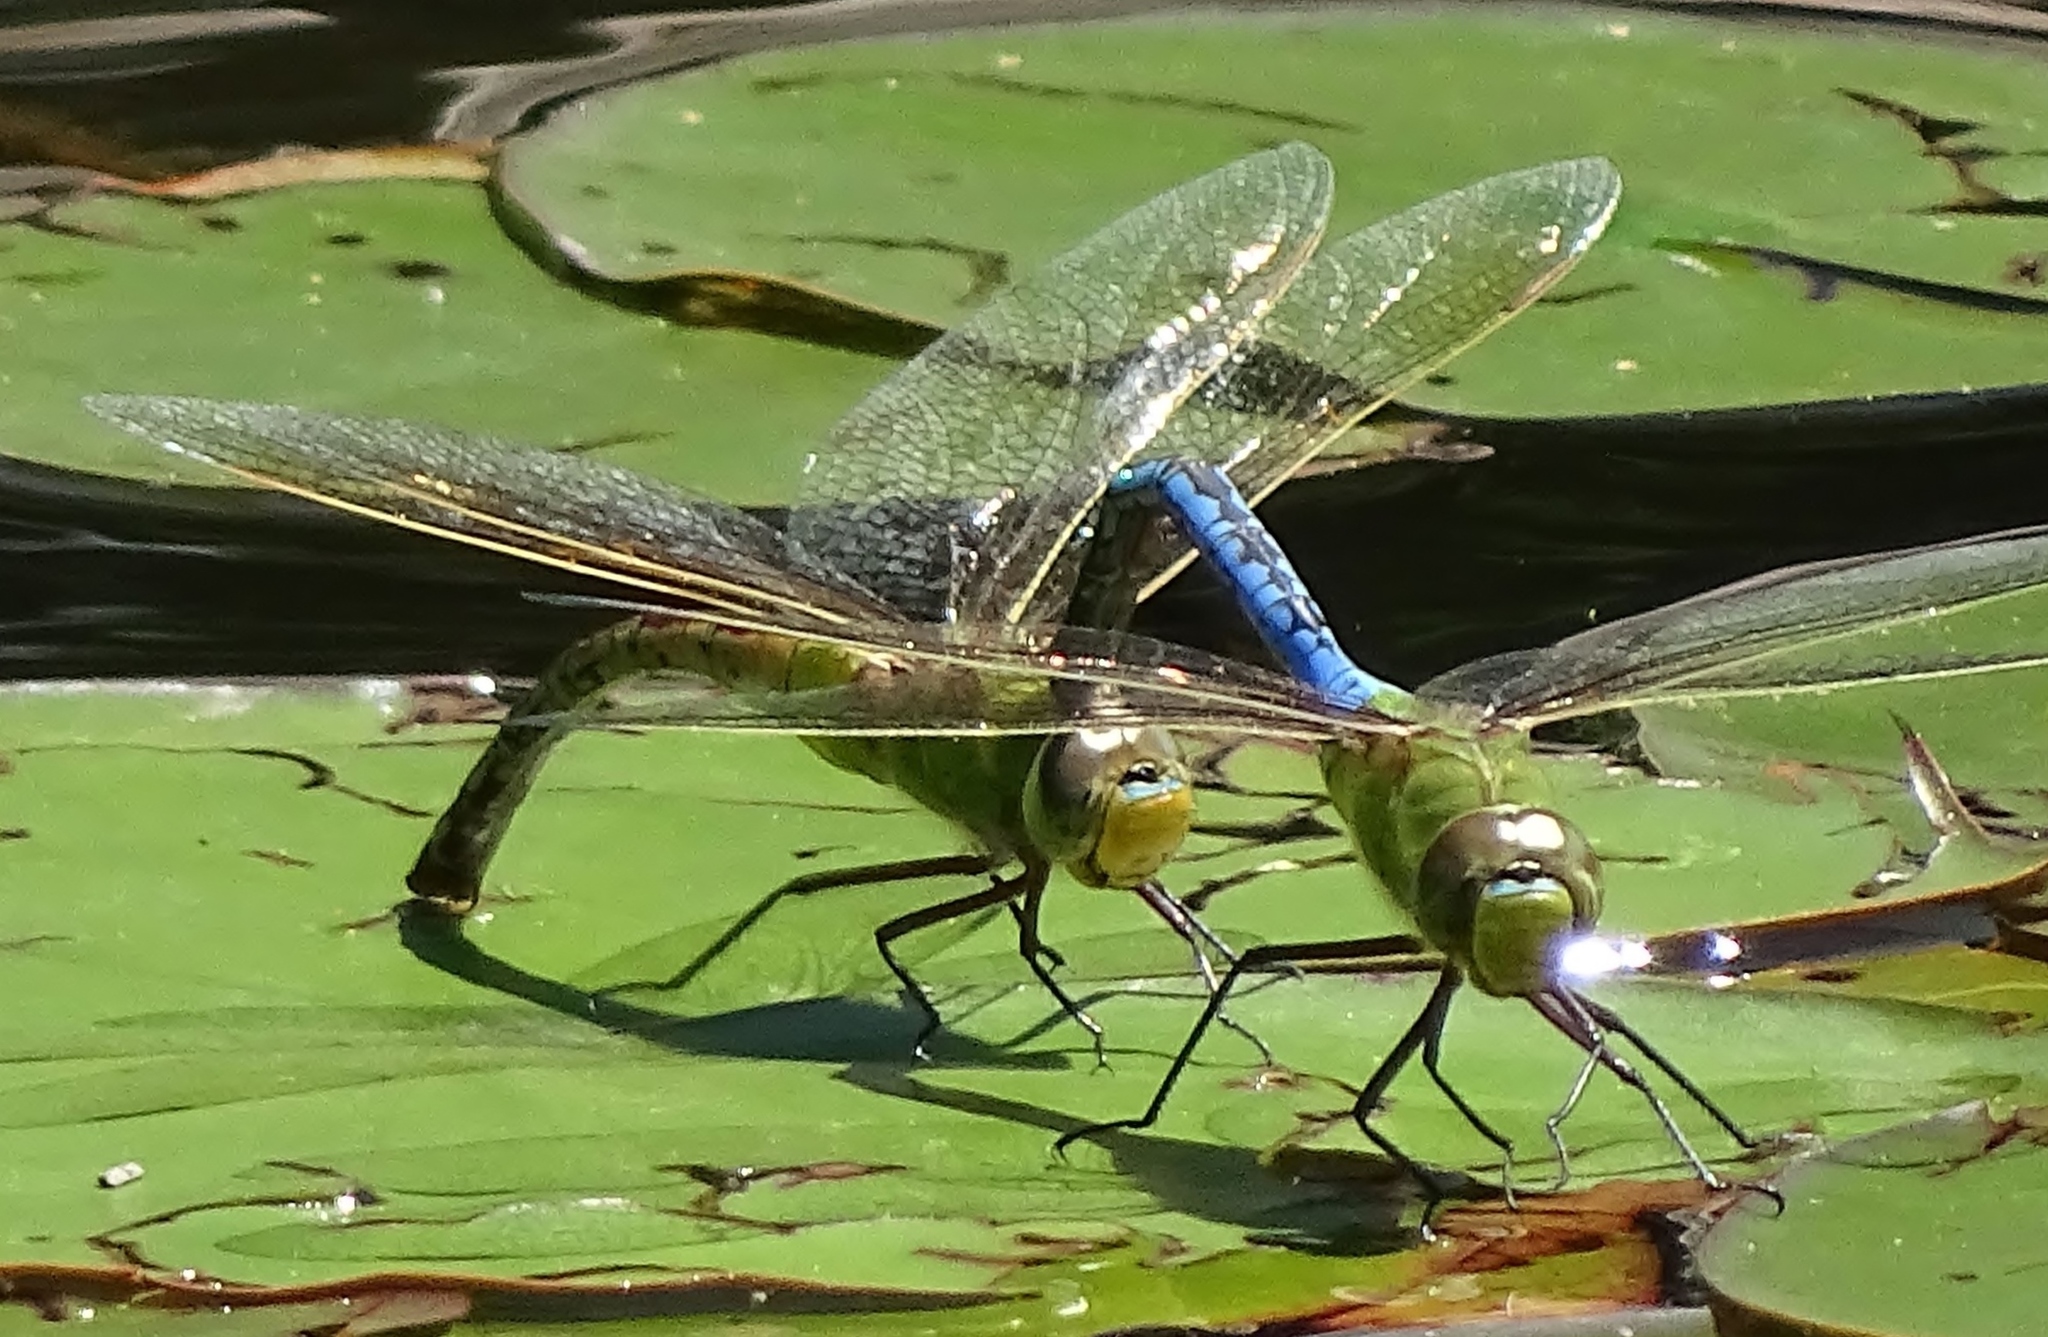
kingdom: Animalia
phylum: Arthropoda
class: Insecta
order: Odonata
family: Aeshnidae
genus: Anax
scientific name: Anax junius
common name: Common green darner
